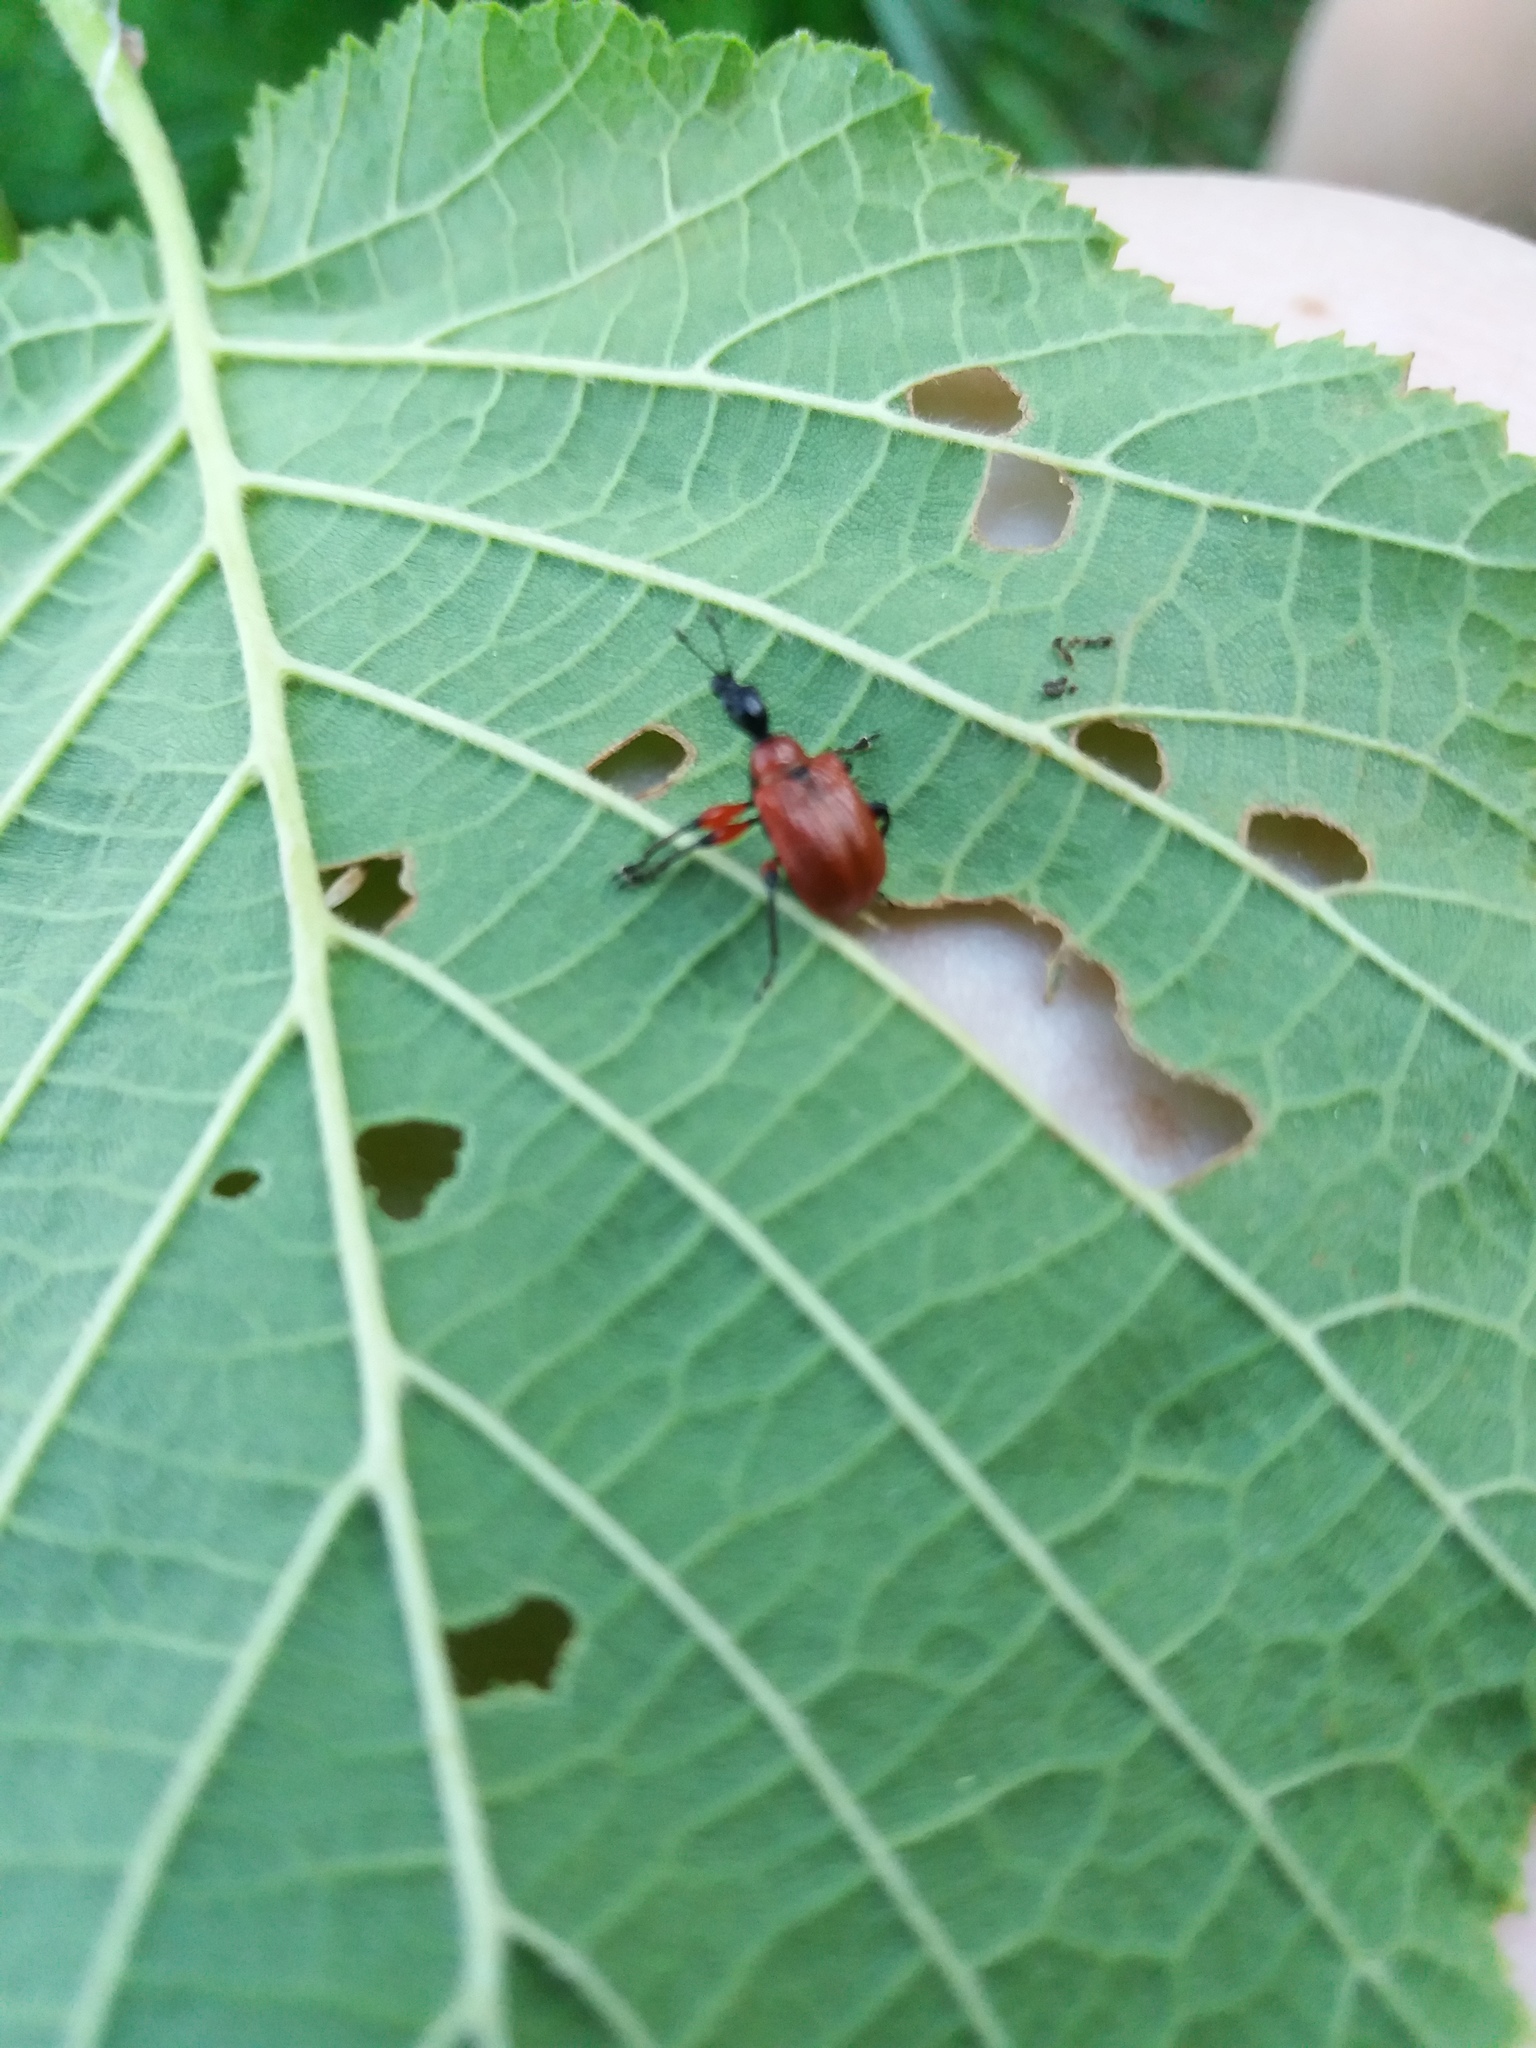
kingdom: Animalia
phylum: Arthropoda
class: Insecta
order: Coleoptera
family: Attelabidae
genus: Apoderus
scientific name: Apoderus coryli
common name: Hazel leaf roller
